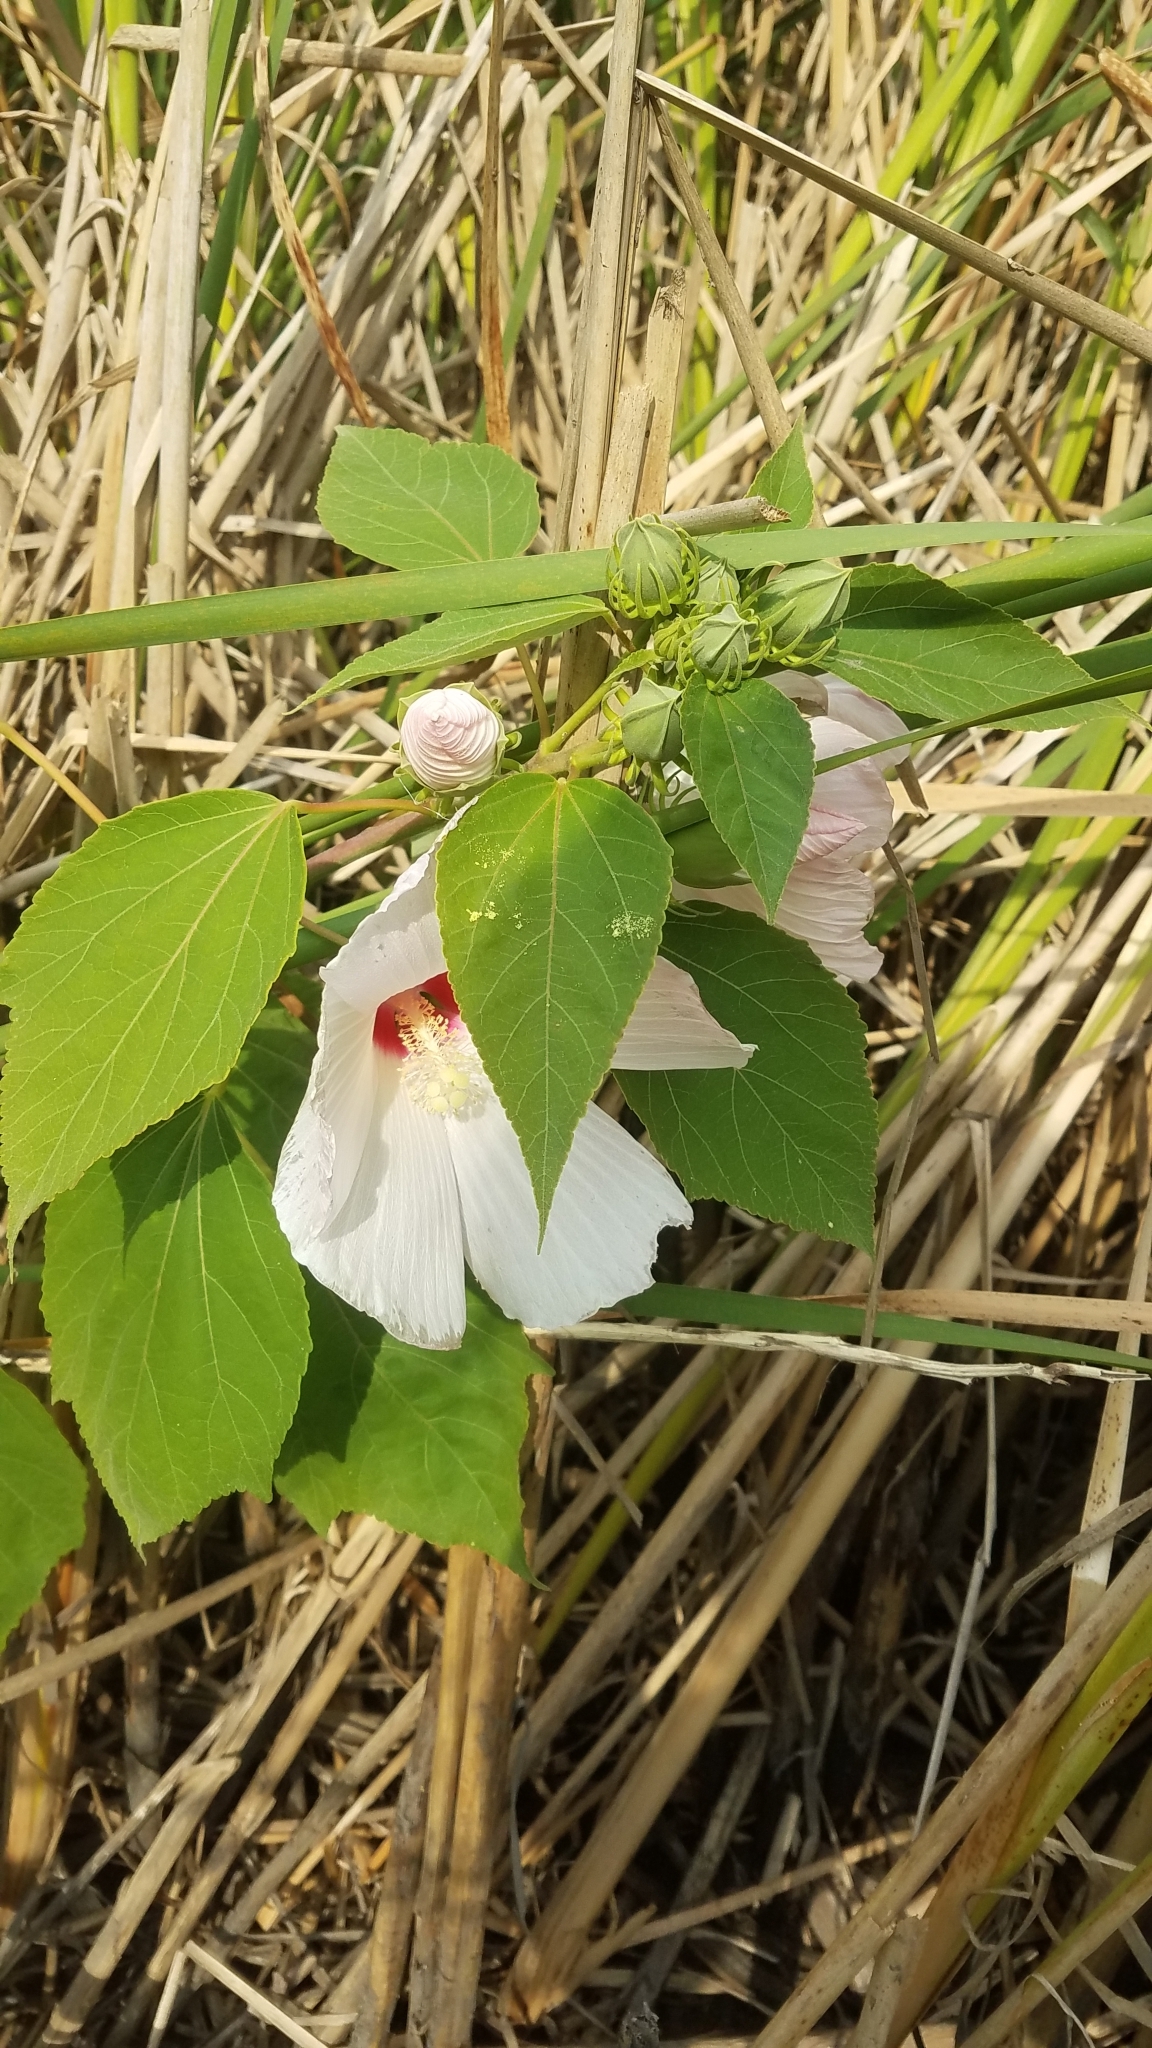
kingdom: Plantae
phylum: Tracheophyta
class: Magnoliopsida
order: Malvales
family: Malvaceae
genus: Hibiscus
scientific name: Hibiscus moscheutos
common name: Common rose-mallow
